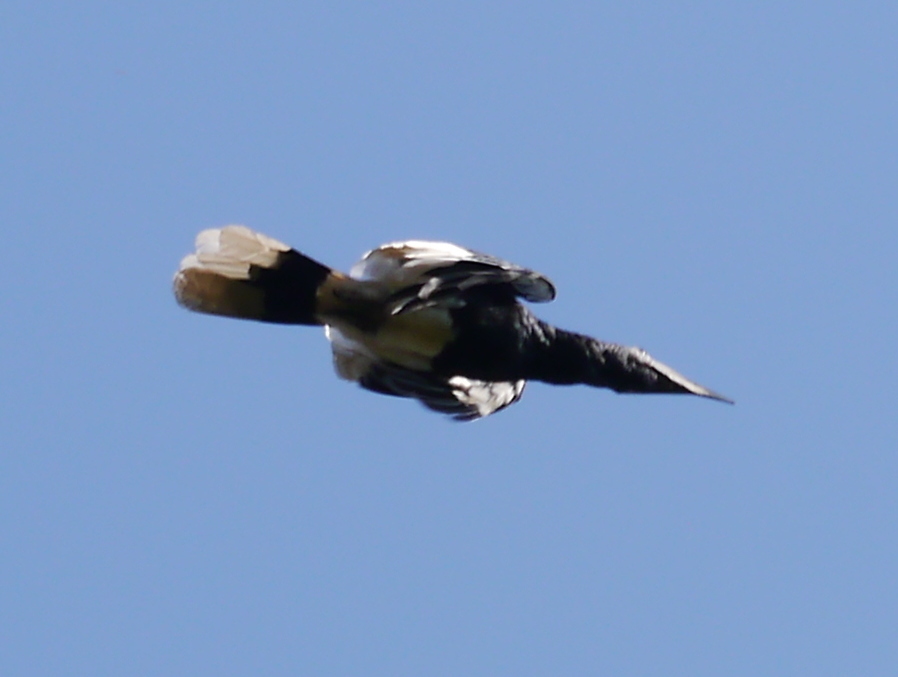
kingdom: Animalia
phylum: Chordata
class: Aves
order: Bucerotiformes
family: Bucerotidae
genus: Bycanistes
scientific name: Bycanistes subcylindricus
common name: Black-and-white-casqued hornbill
